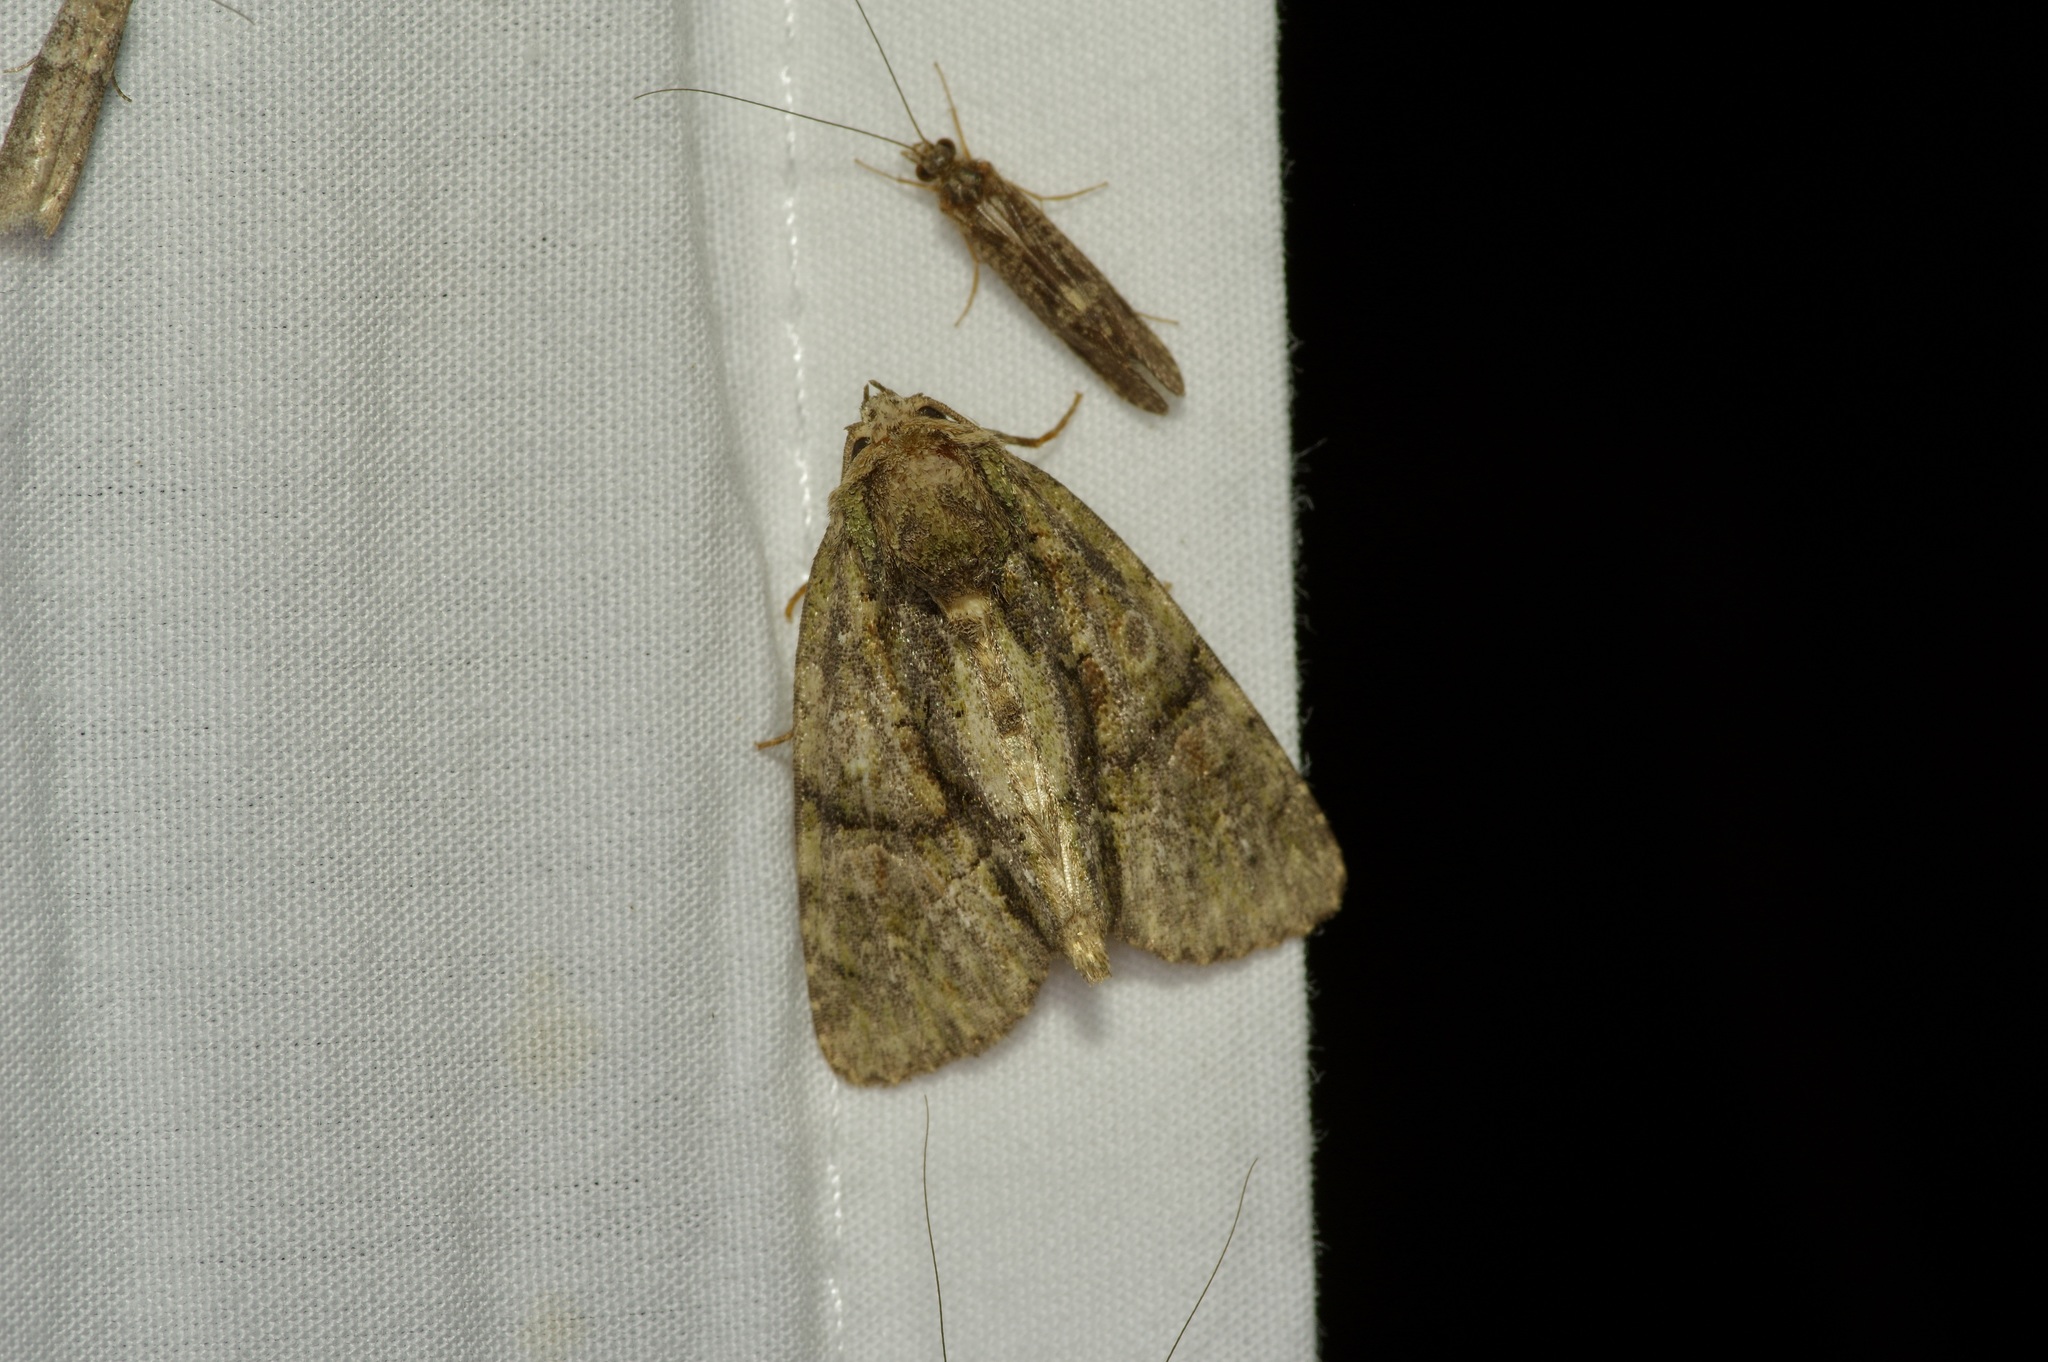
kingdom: Animalia
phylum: Arthropoda
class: Insecta
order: Lepidoptera
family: Noctuidae
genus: Phosphila
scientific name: Phosphila miselioides
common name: Spotted phosphila moth
